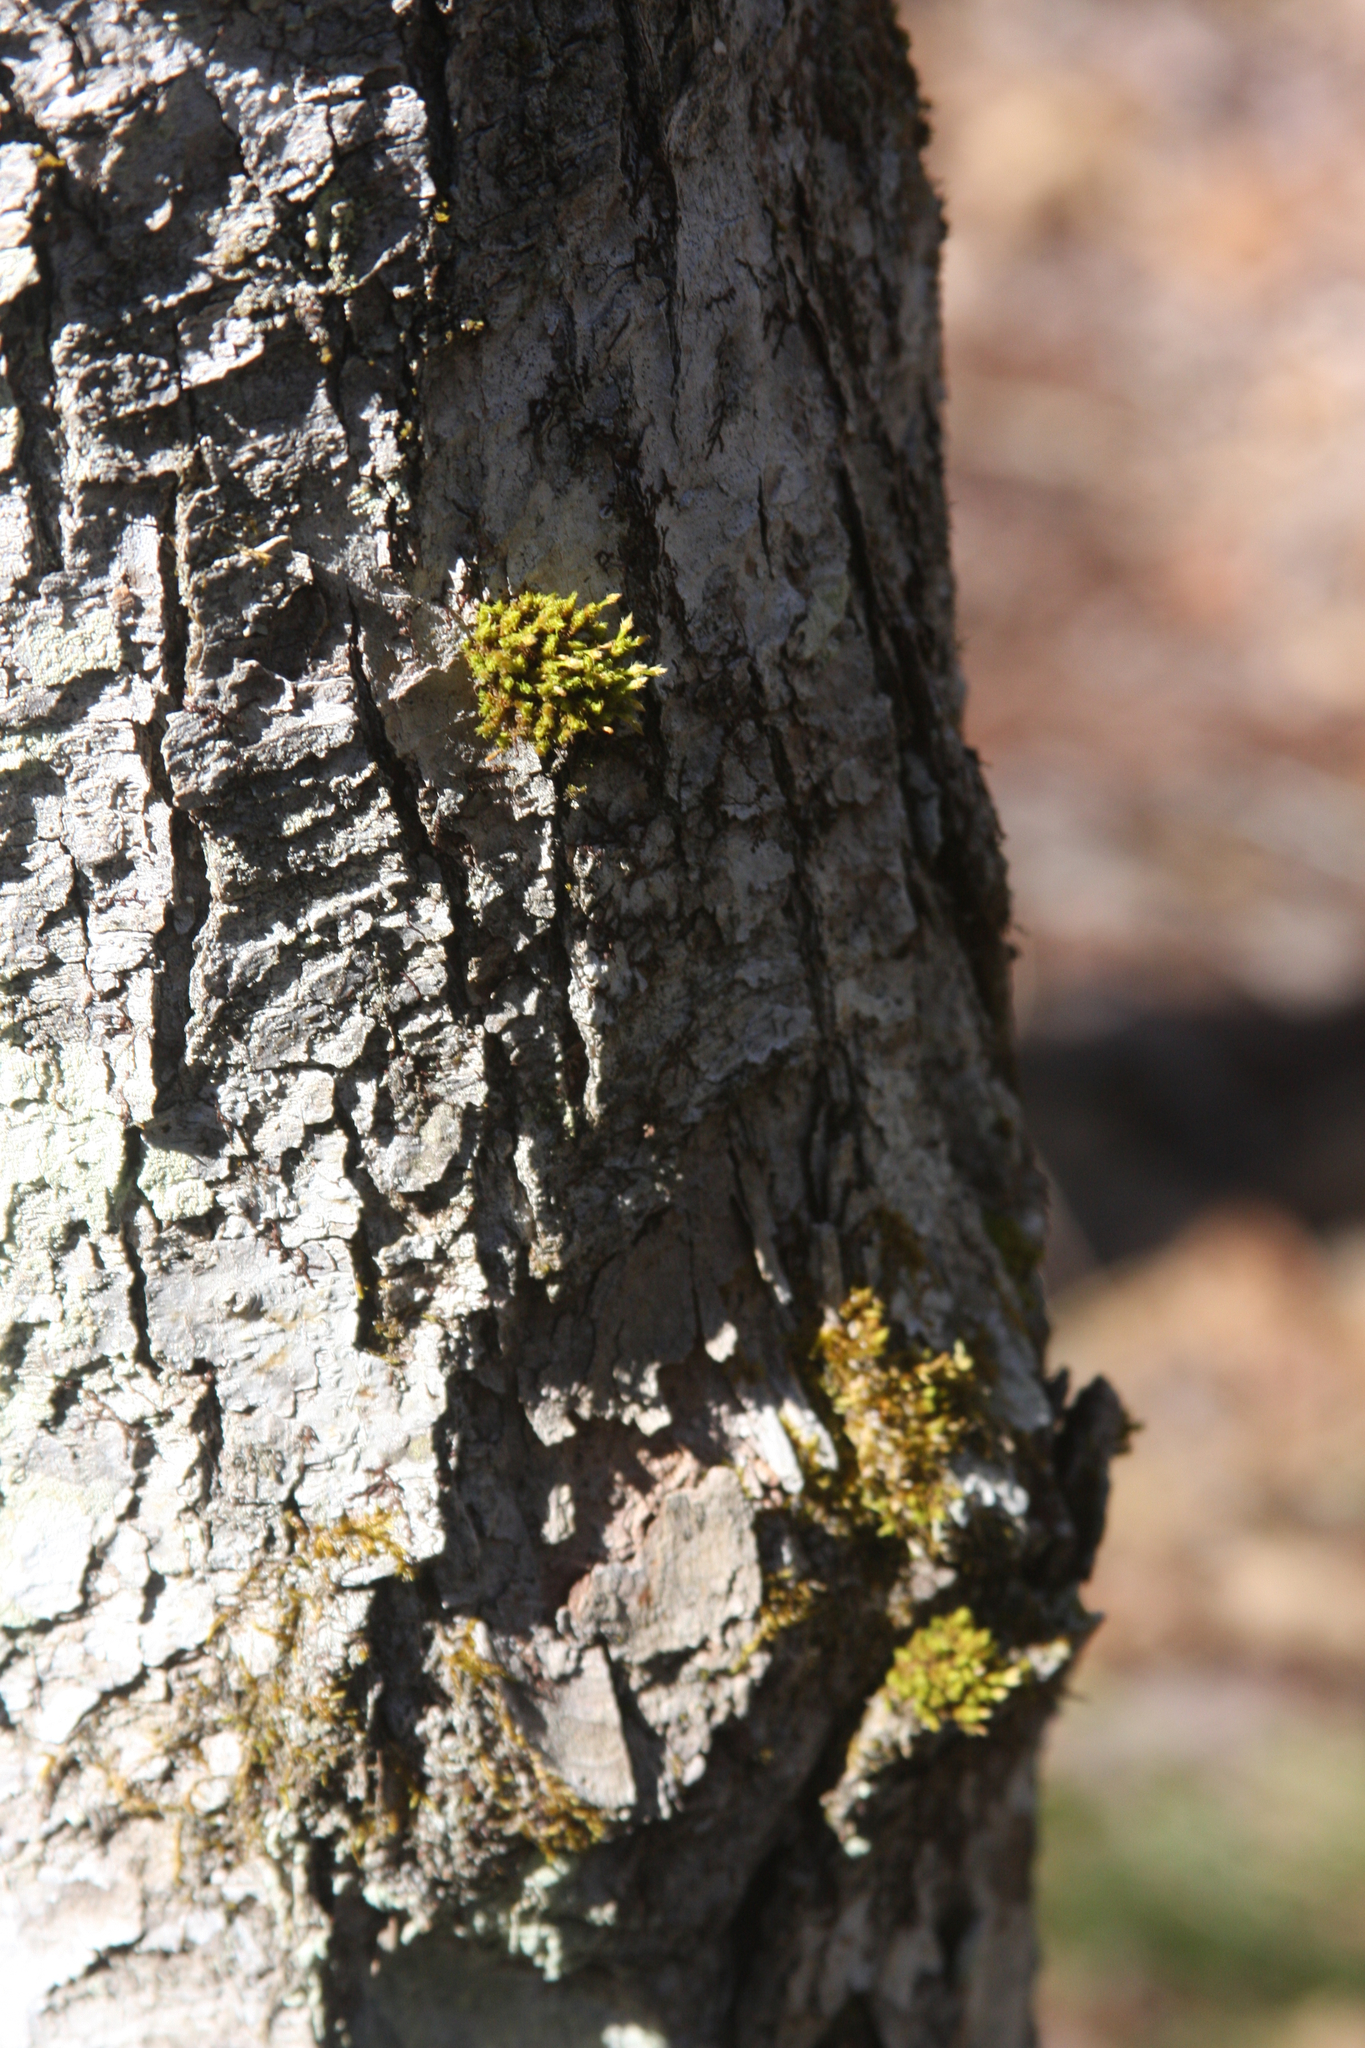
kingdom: Plantae
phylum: Bryophyta
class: Bryopsida
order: Orthotrichales
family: Orthotrichaceae
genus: Ulota
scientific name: Ulota crispa
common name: Crisped pincushion moss
